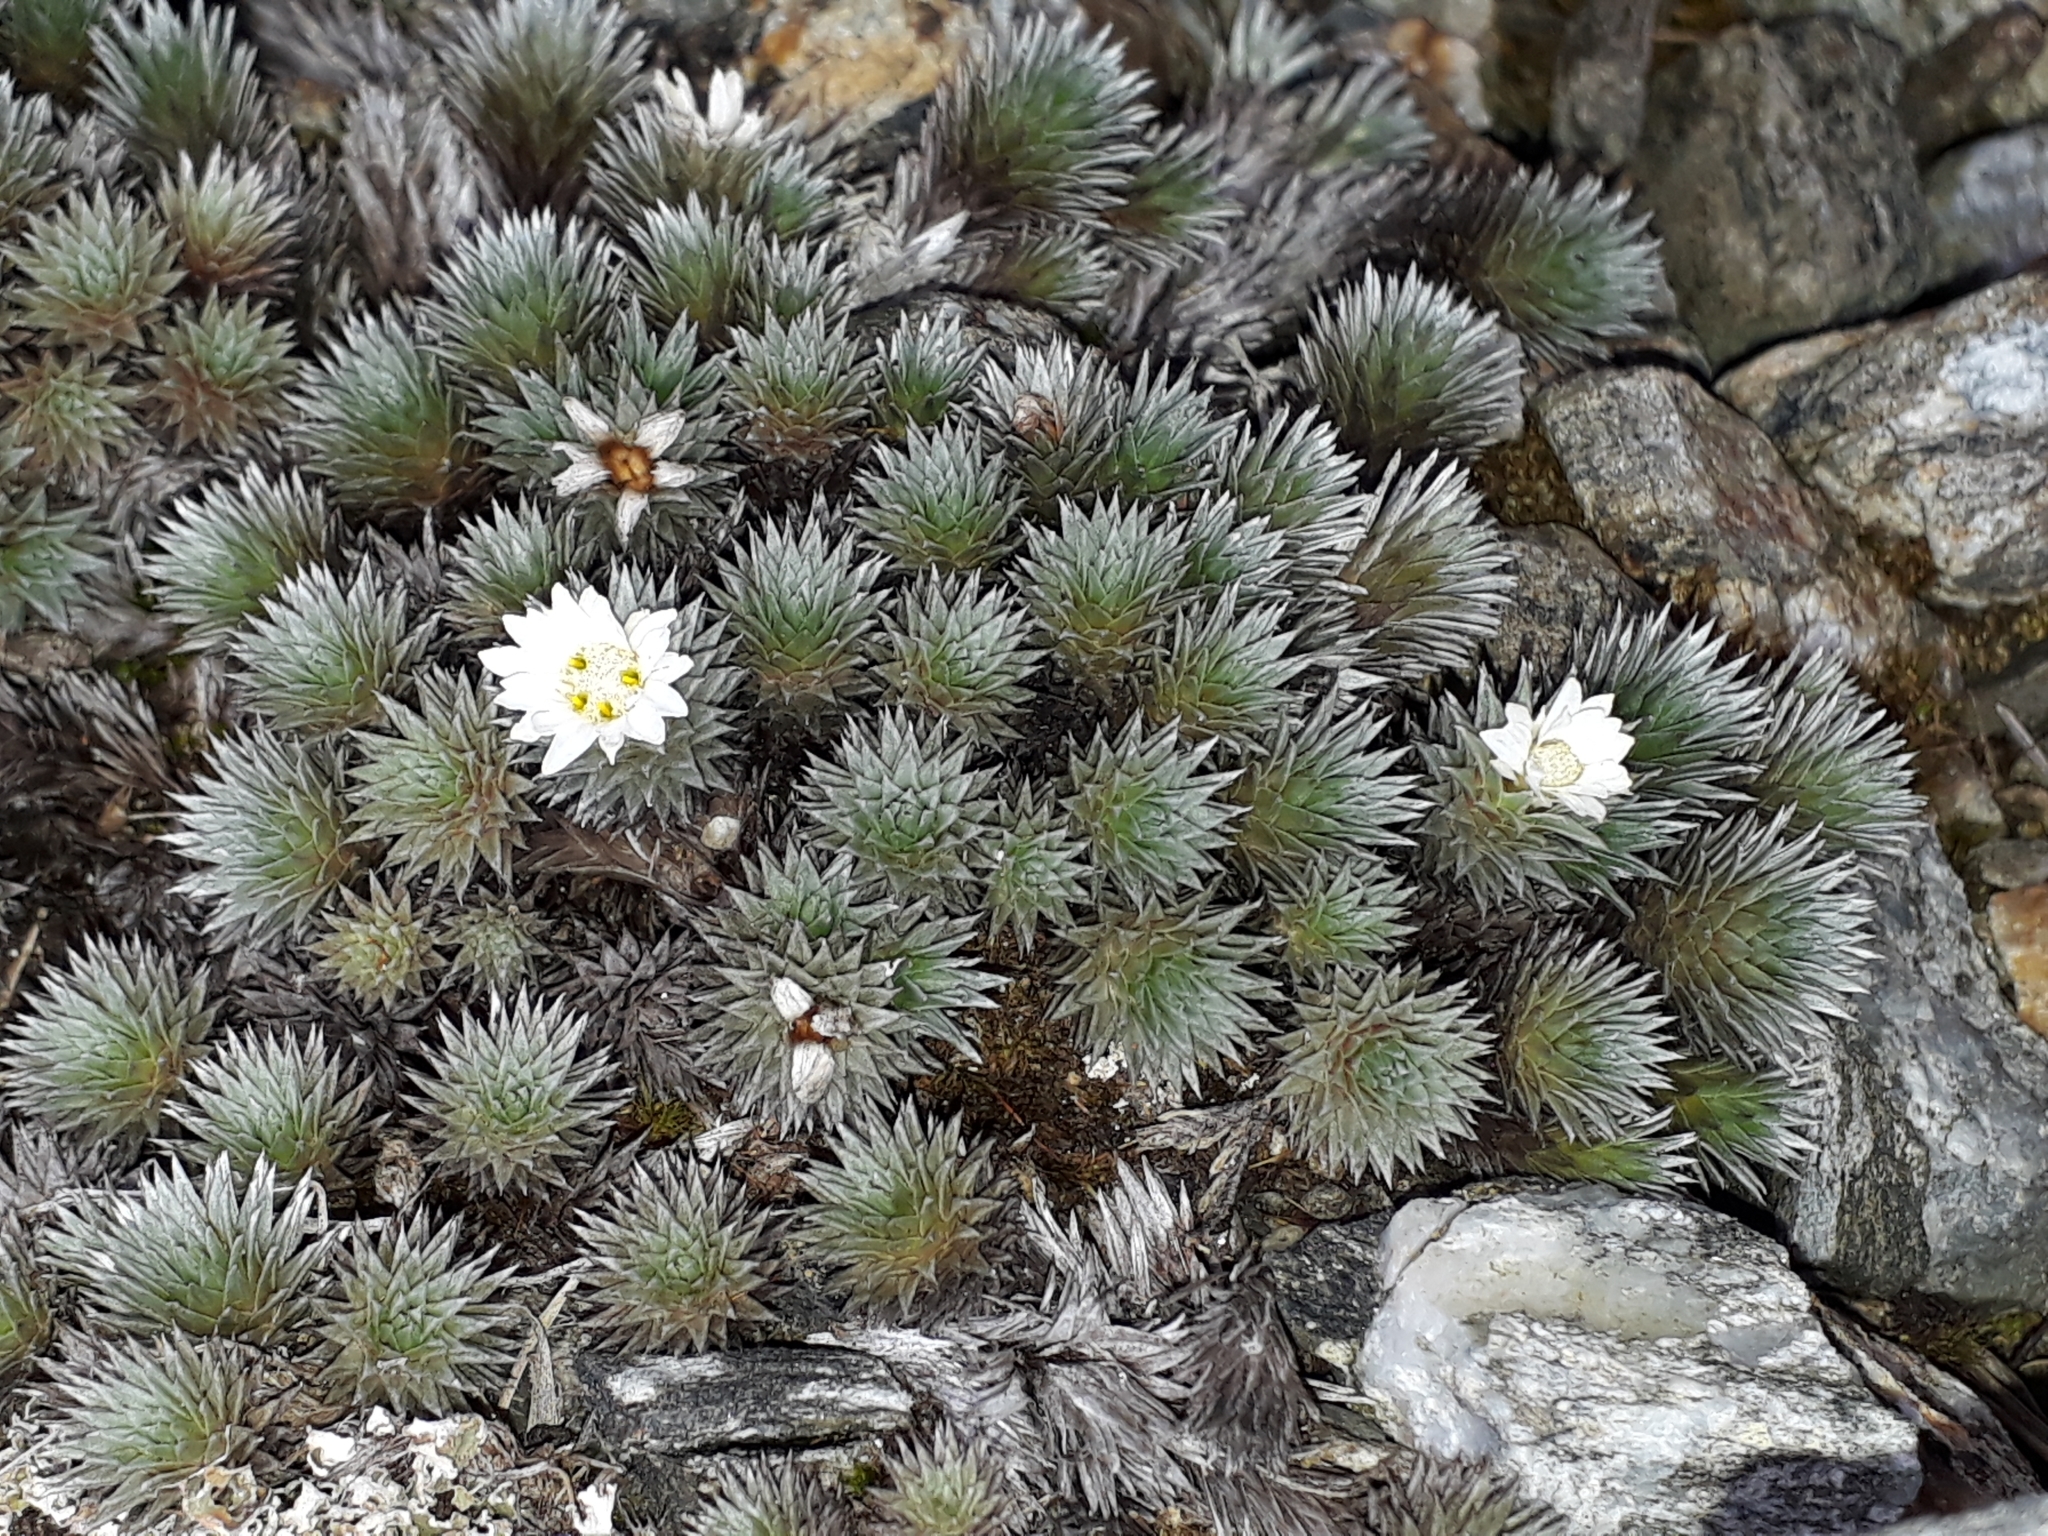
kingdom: Plantae
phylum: Tracheophyta
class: Magnoliopsida
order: Asterales
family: Asteraceae
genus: Raoulia
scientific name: Raoulia grandiflora
